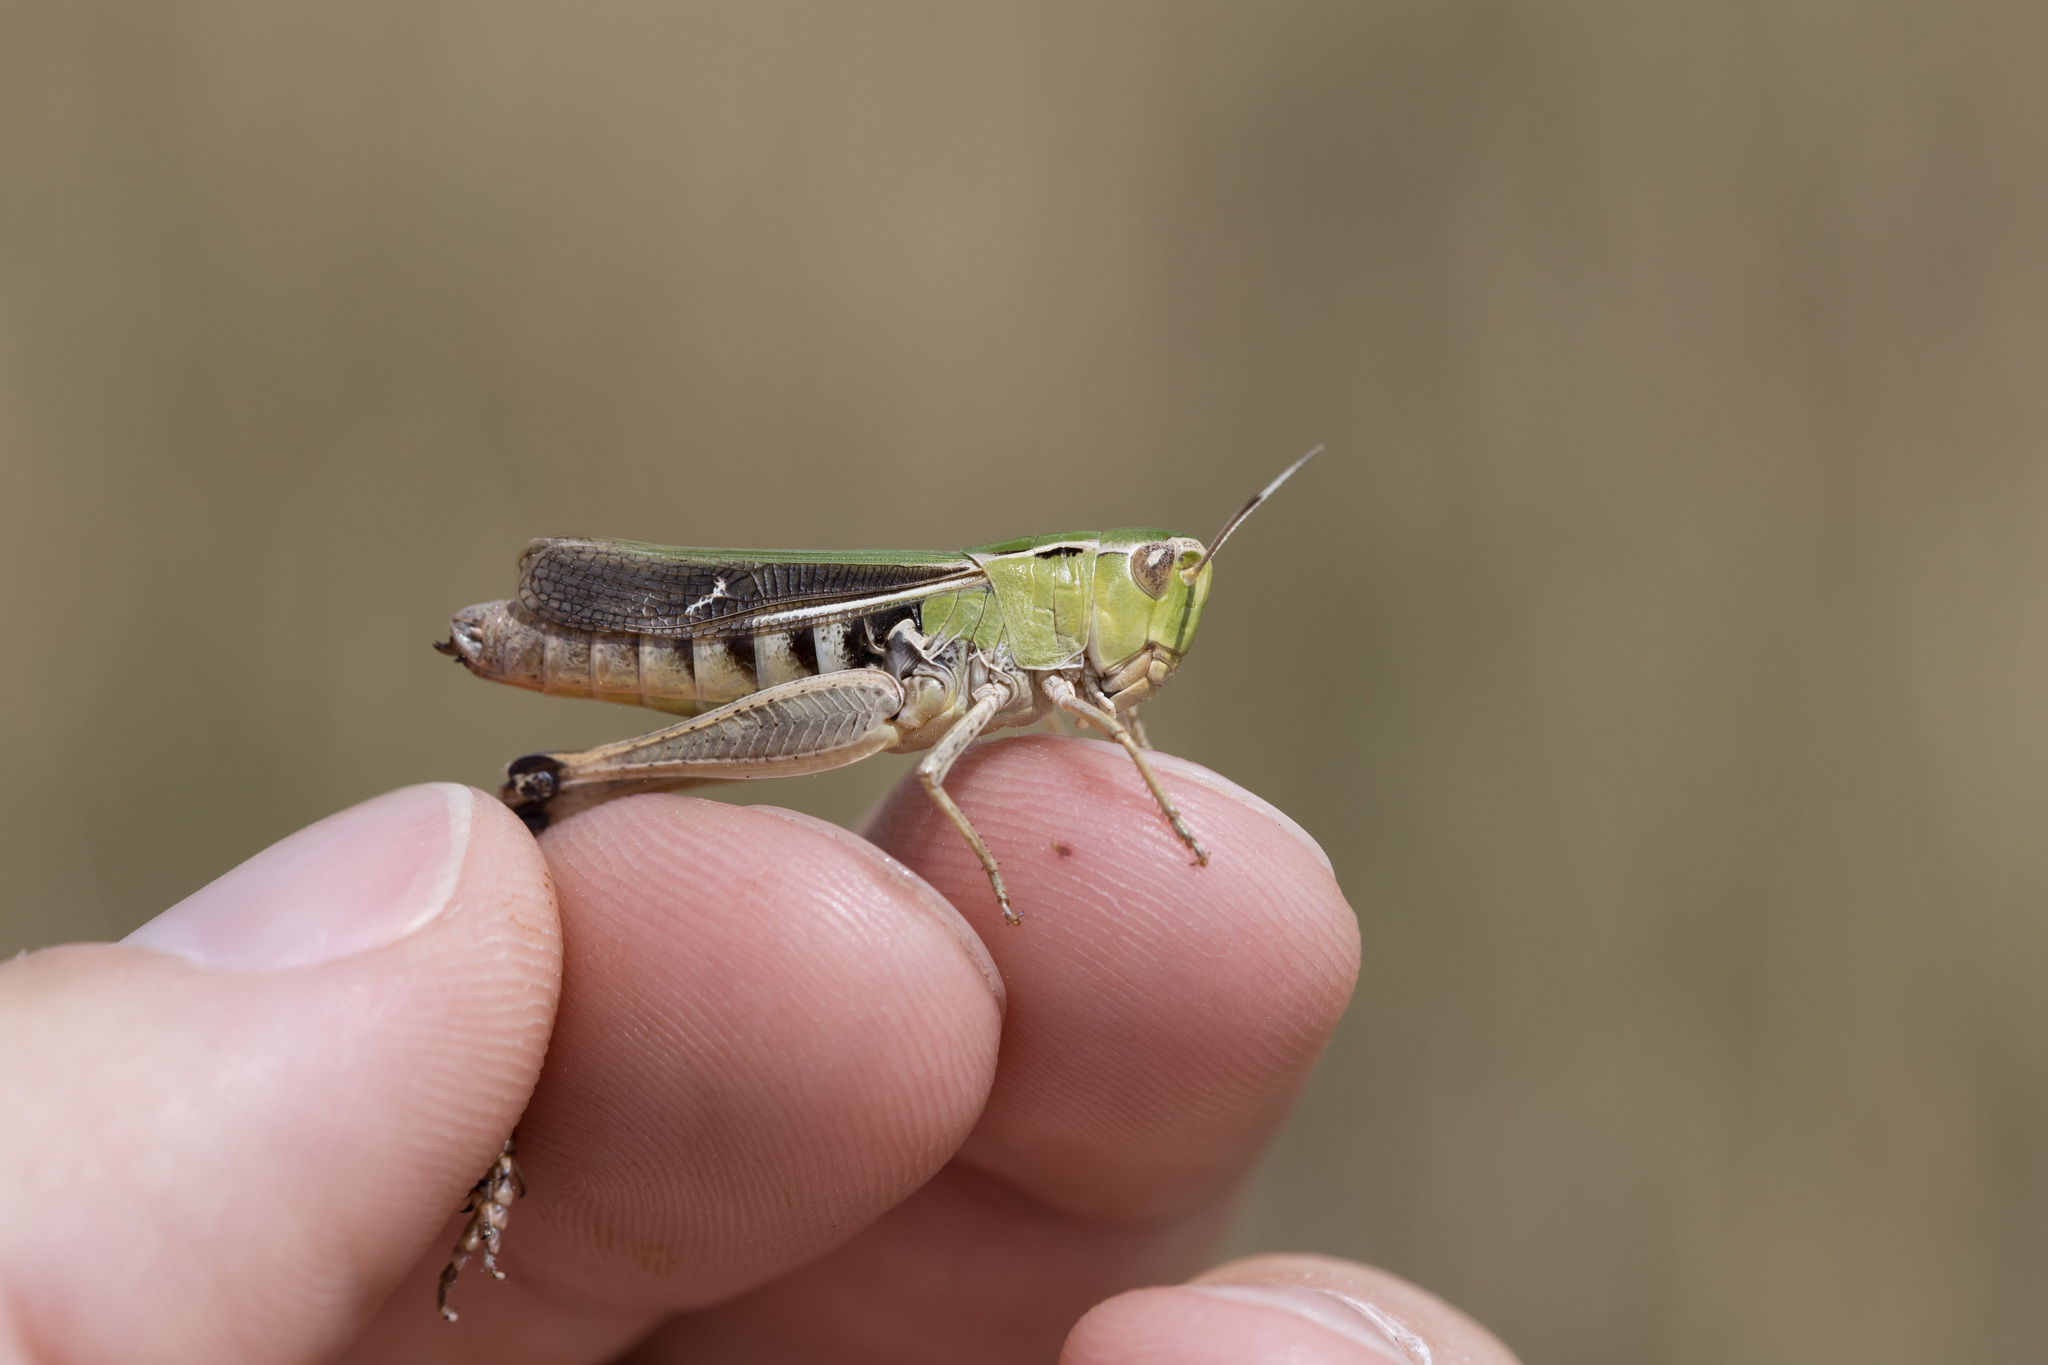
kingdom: Animalia
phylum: Arthropoda
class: Insecta
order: Orthoptera
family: Acrididae
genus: Stenobothrus
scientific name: Stenobothrus lineatus
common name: Stripe-winged grasshopper
